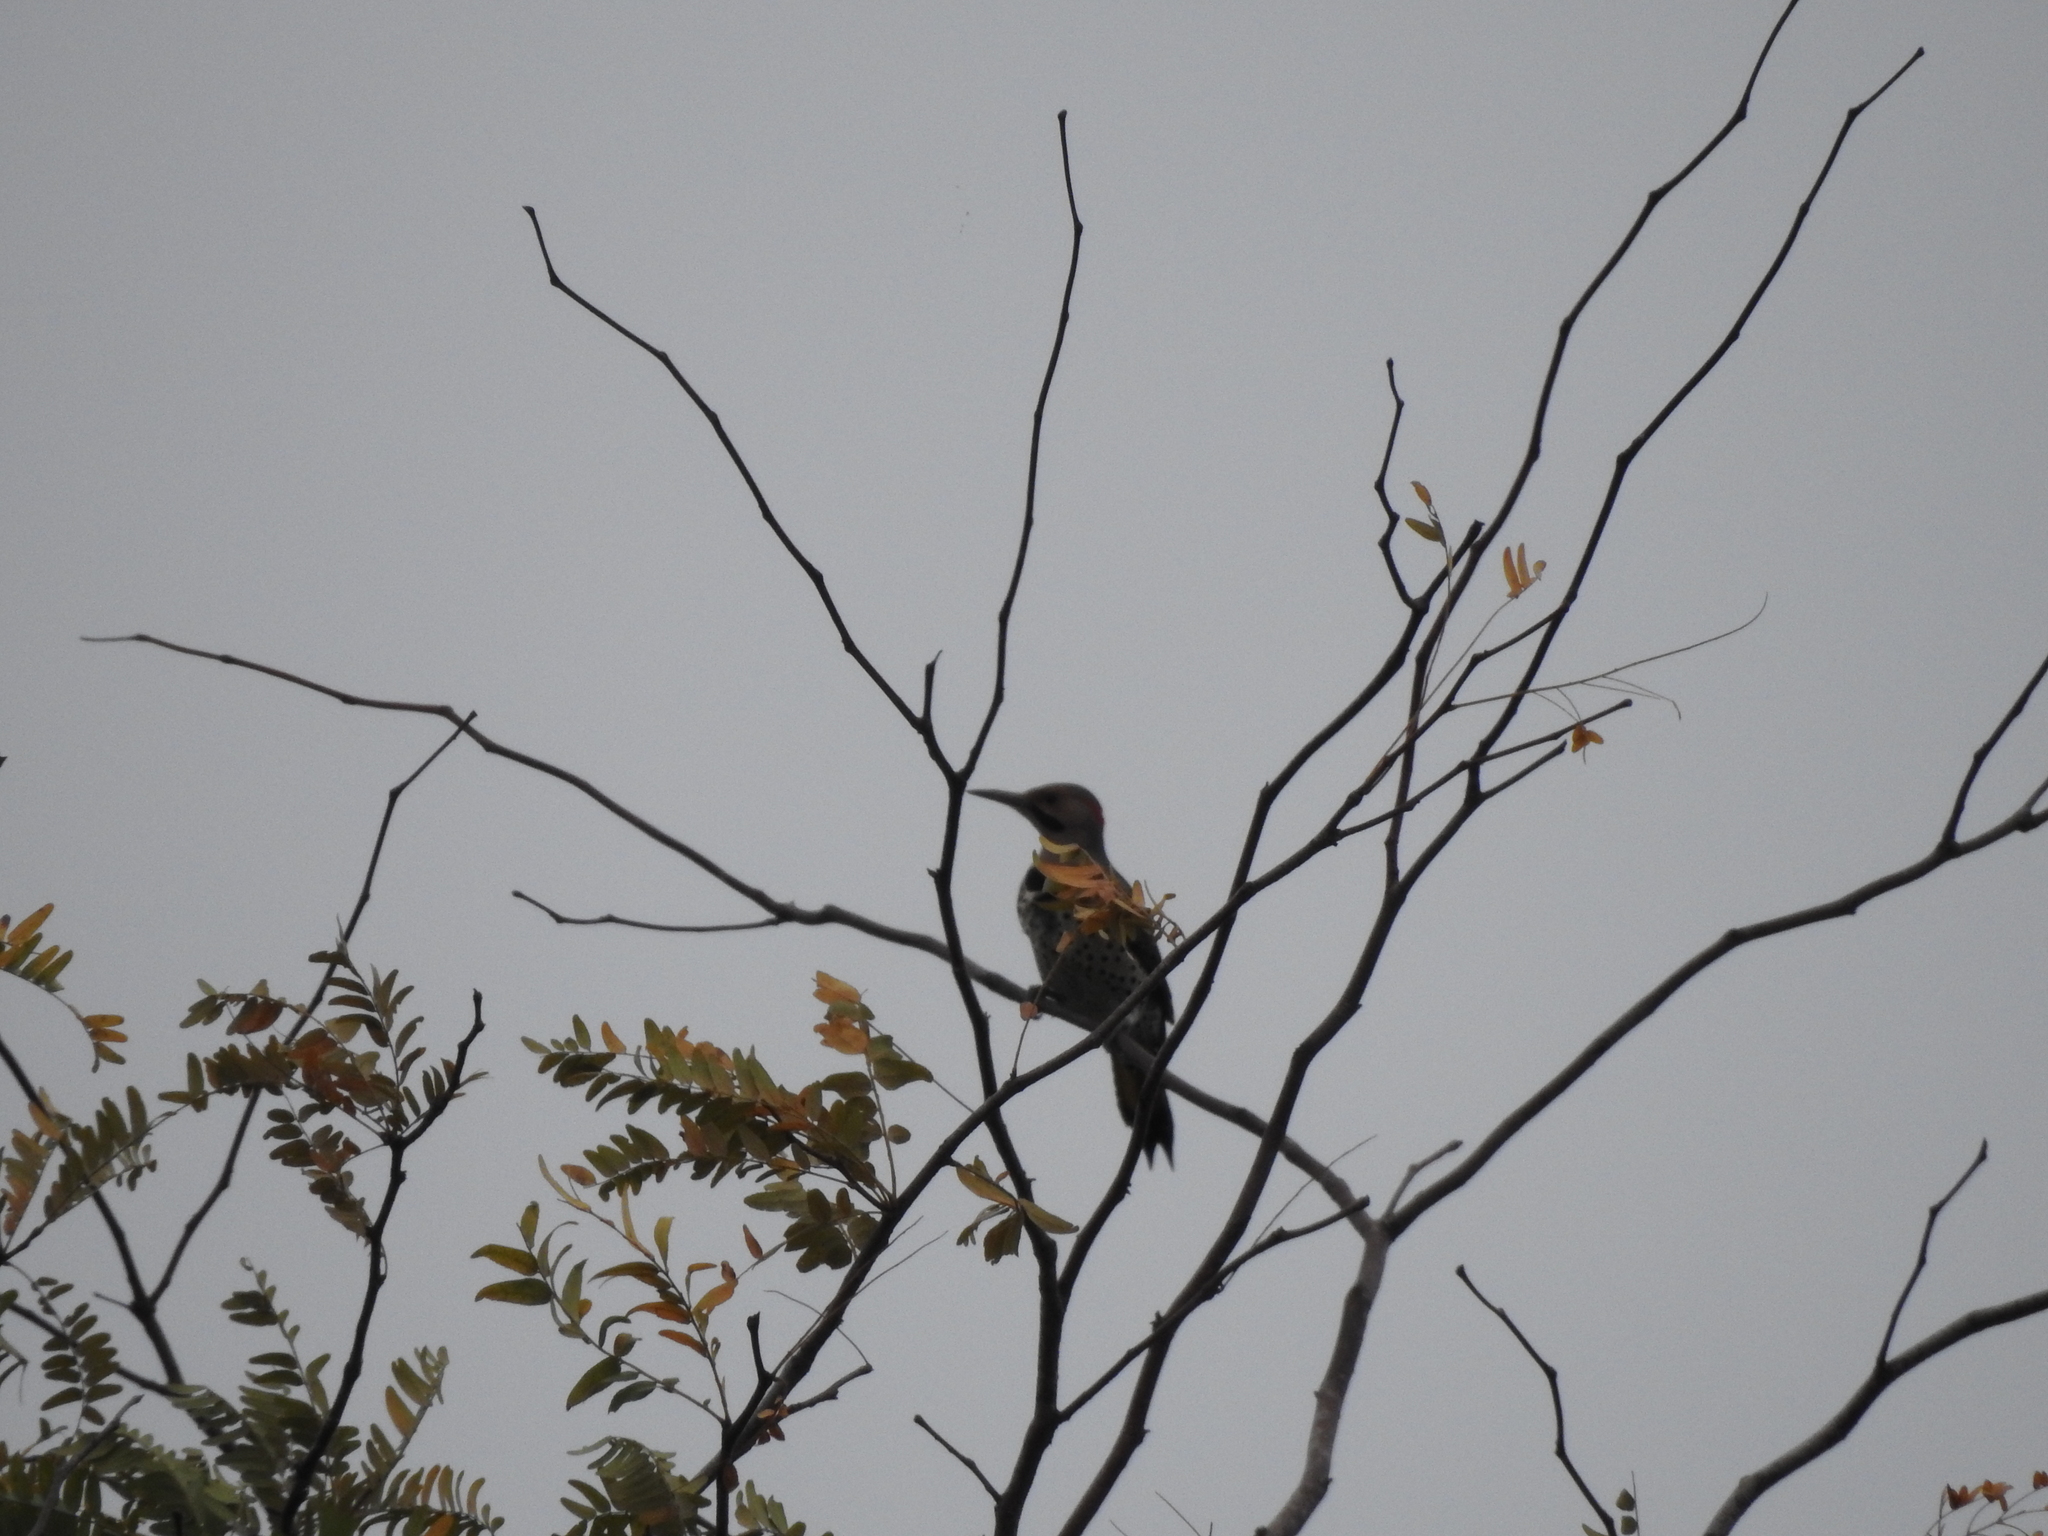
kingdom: Animalia
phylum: Chordata
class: Aves
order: Piciformes
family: Picidae
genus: Colaptes
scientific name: Colaptes auratus
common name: Northern flicker
